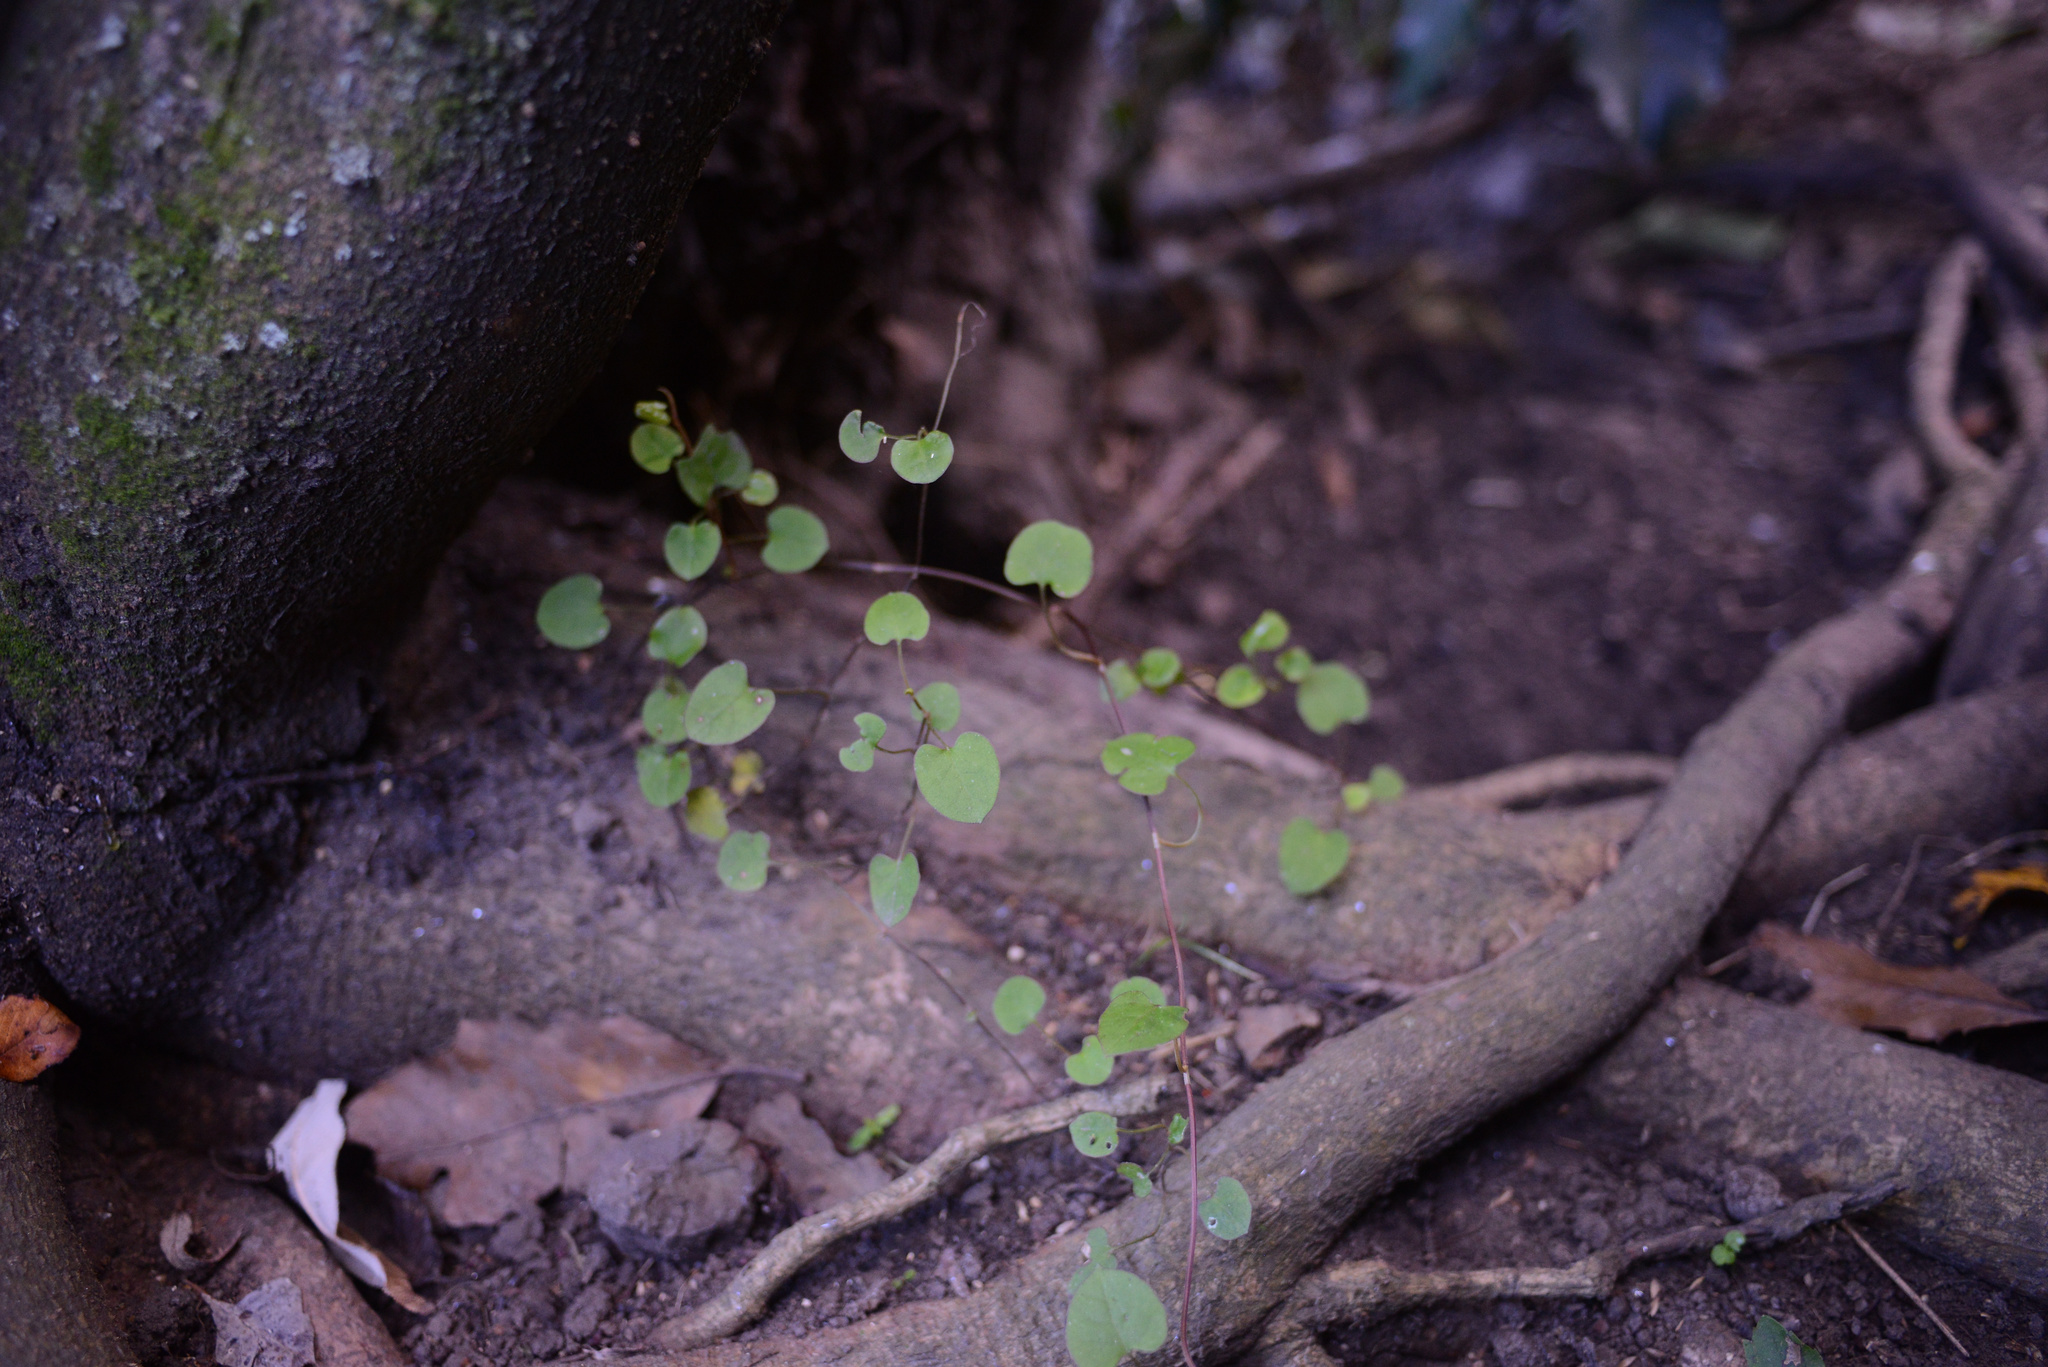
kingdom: Plantae
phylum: Tracheophyta
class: Magnoliopsida
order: Caryophyllales
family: Polygonaceae
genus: Muehlenbeckia
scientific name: Muehlenbeckia australis
